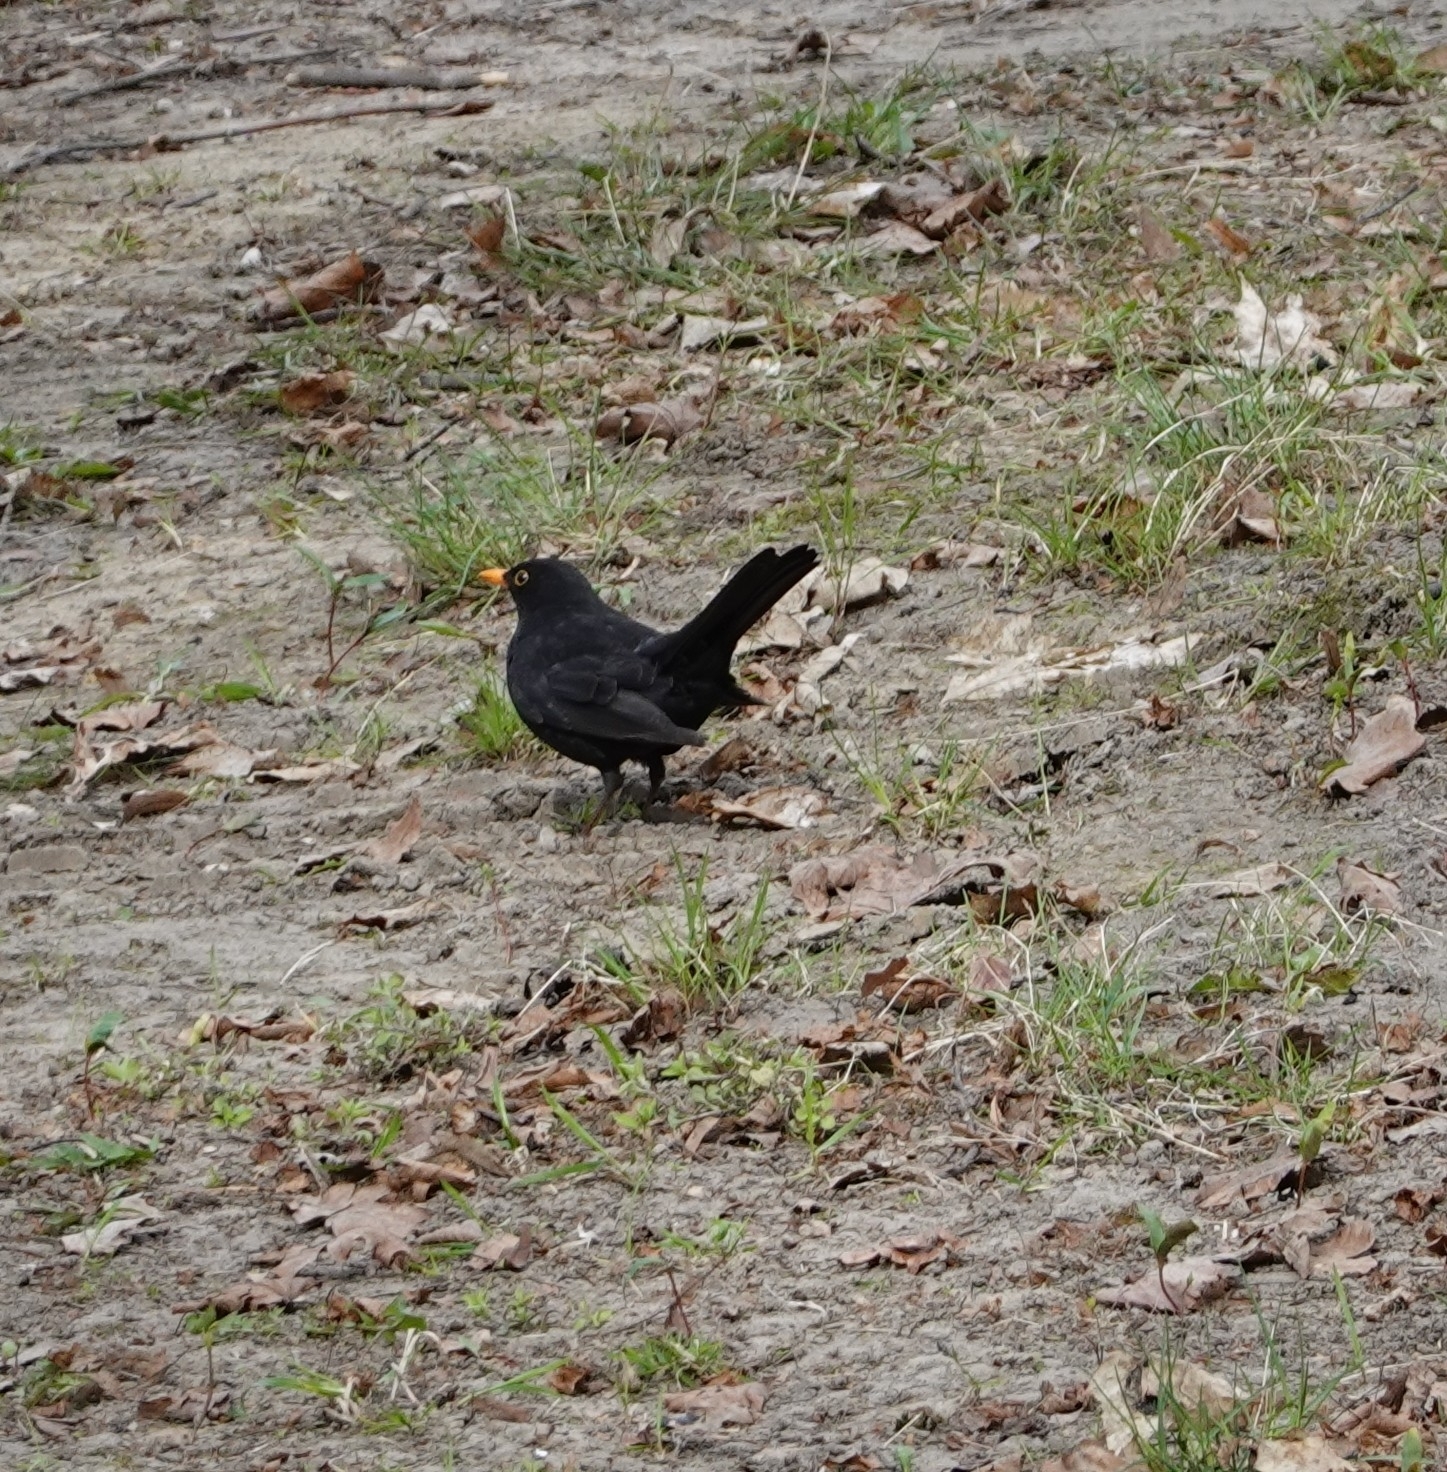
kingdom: Animalia
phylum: Chordata
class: Aves
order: Passeriformes
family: Turdidae
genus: Turdus
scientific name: Turdus merula
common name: Common blackbird
